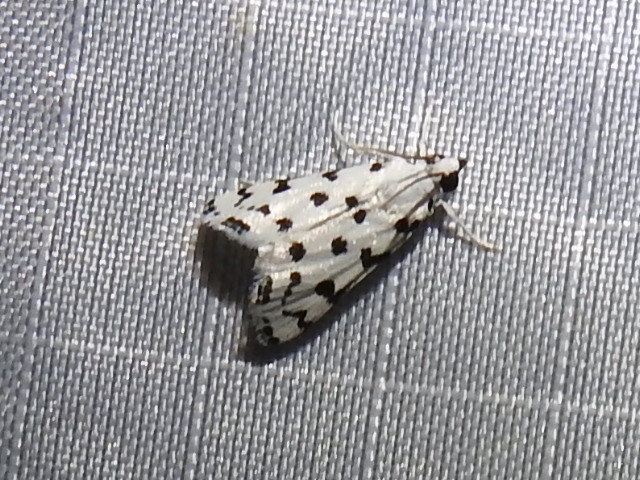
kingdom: Animalia
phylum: Arthropoda
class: Insecta
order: Lepidoptera
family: Crambidae
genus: Eustixia
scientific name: Eustixia pupula
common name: American cabbage pearl
